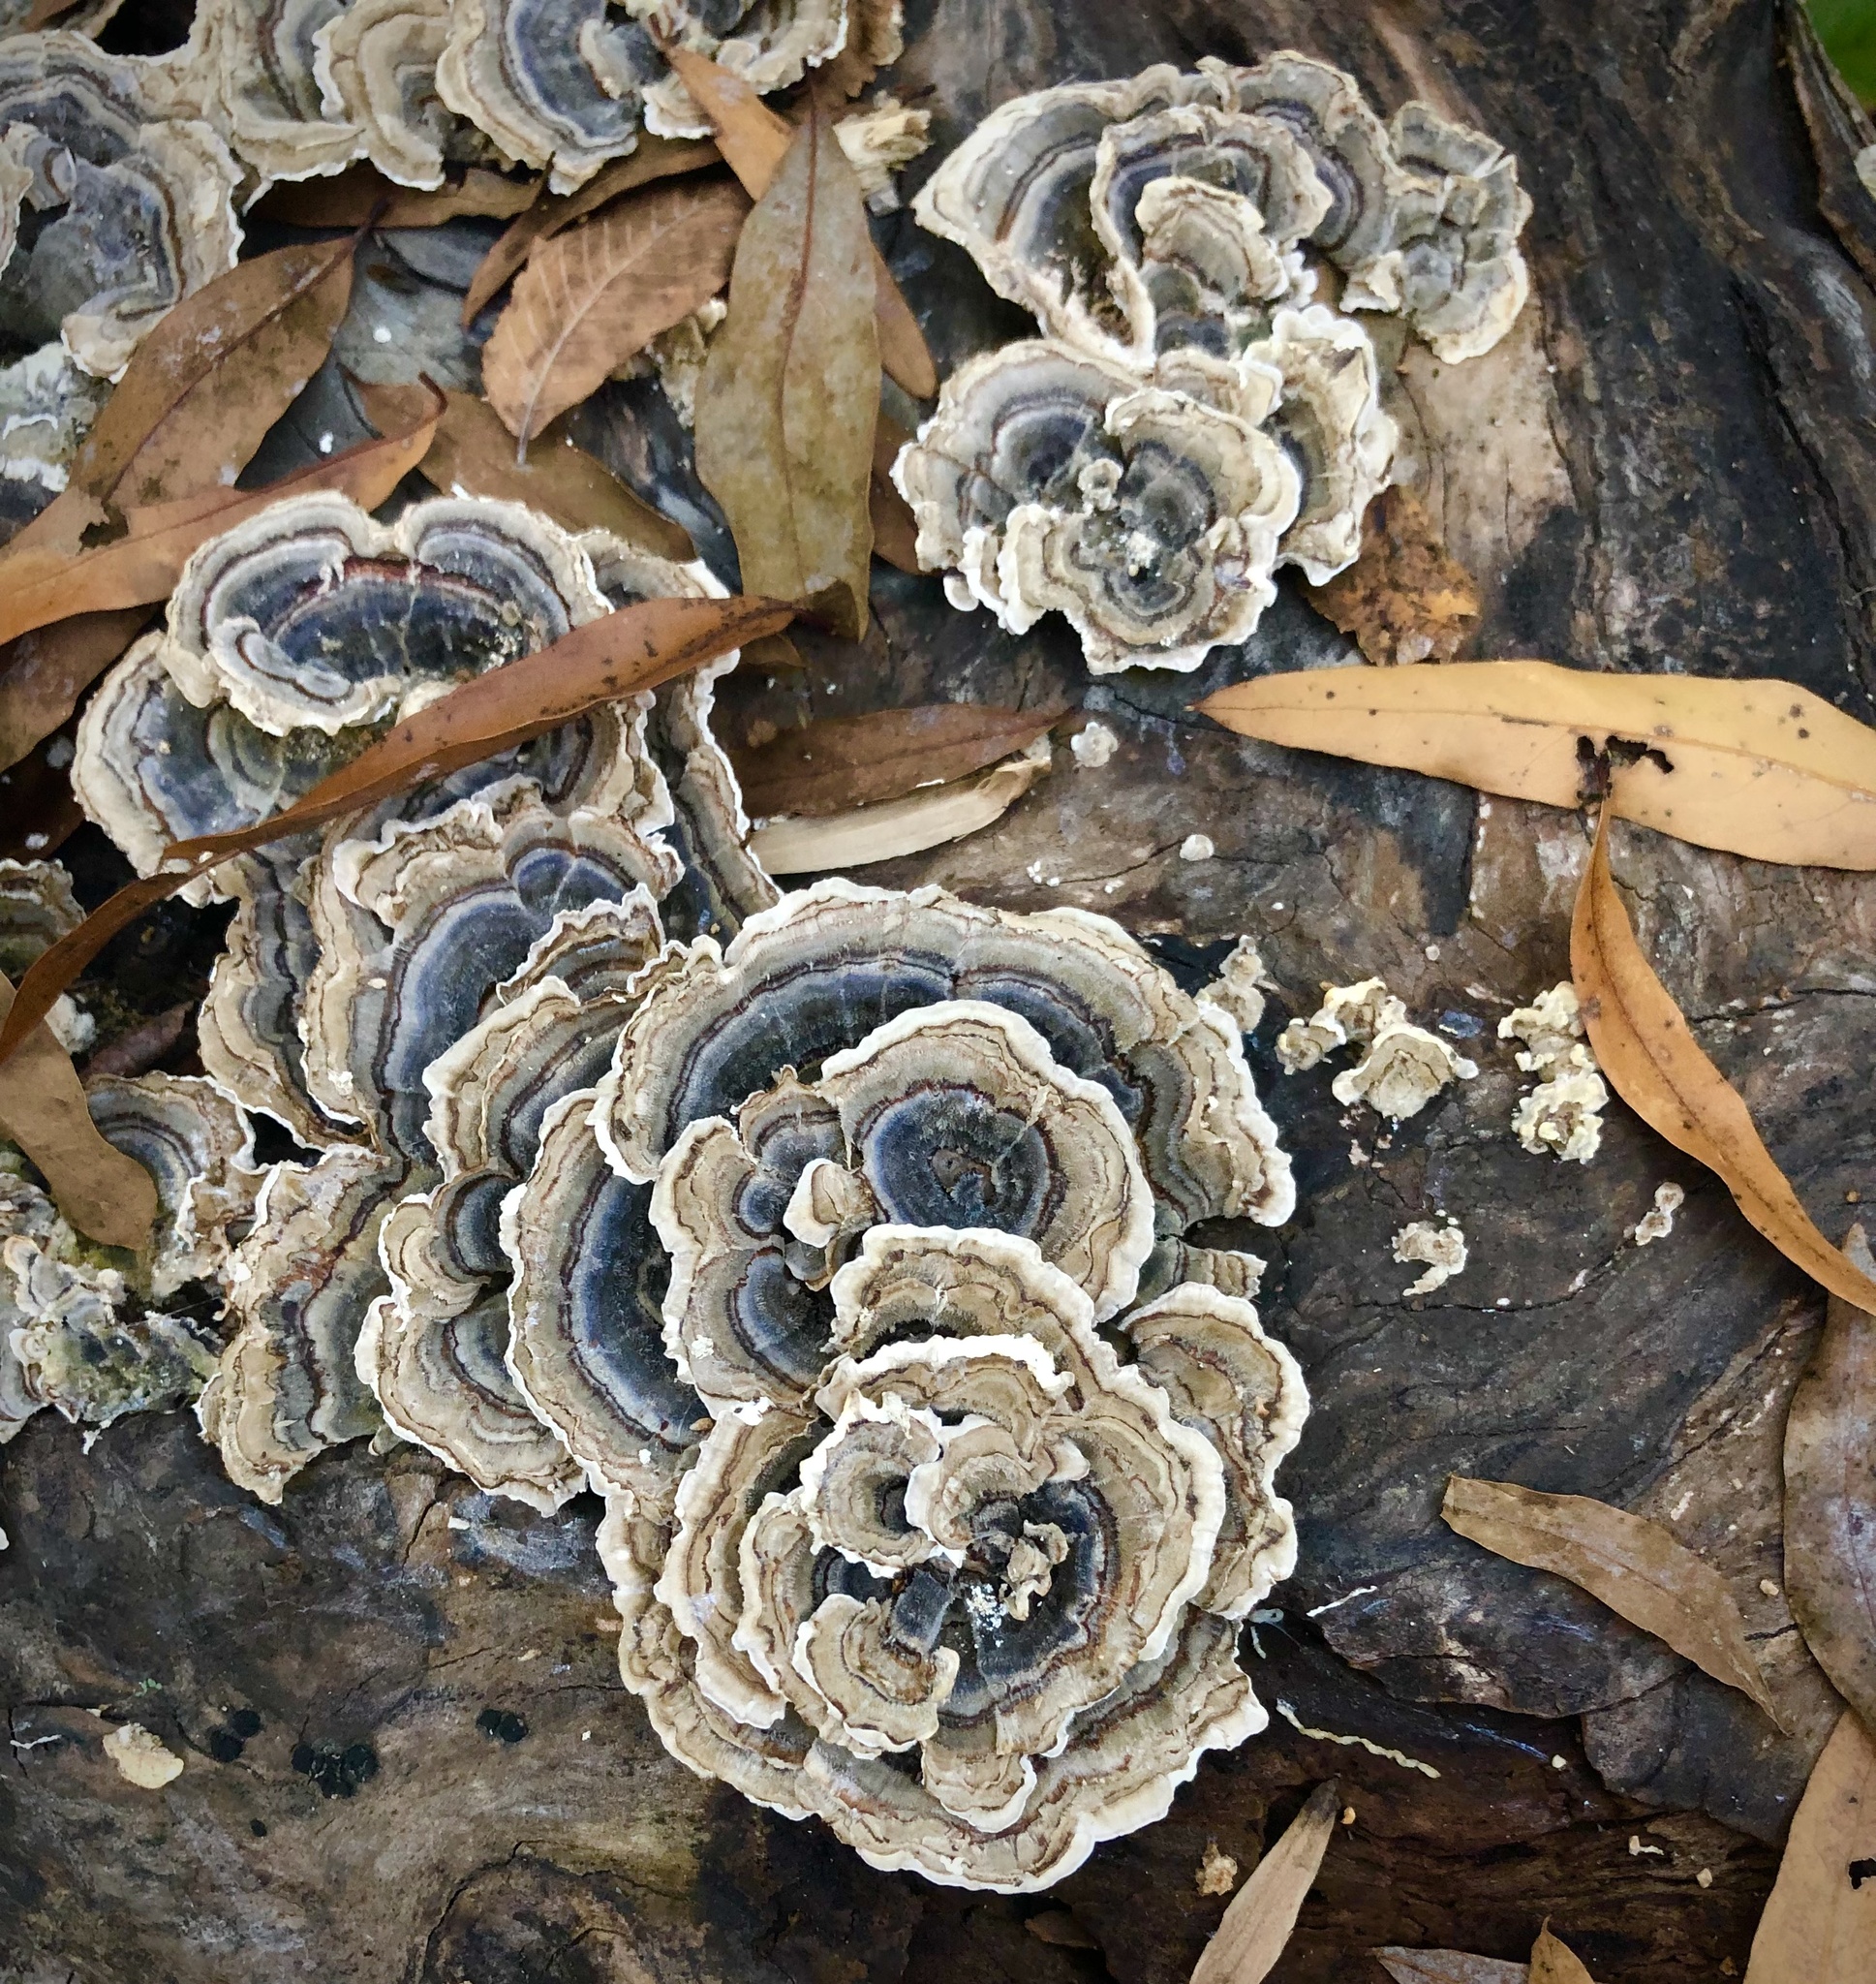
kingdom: Fungi
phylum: Basidiomycota
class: Agaricomycetes
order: Polyporales
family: Polyporaceae
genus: Trametes
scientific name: Trametes versicolor
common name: Turkeytail
